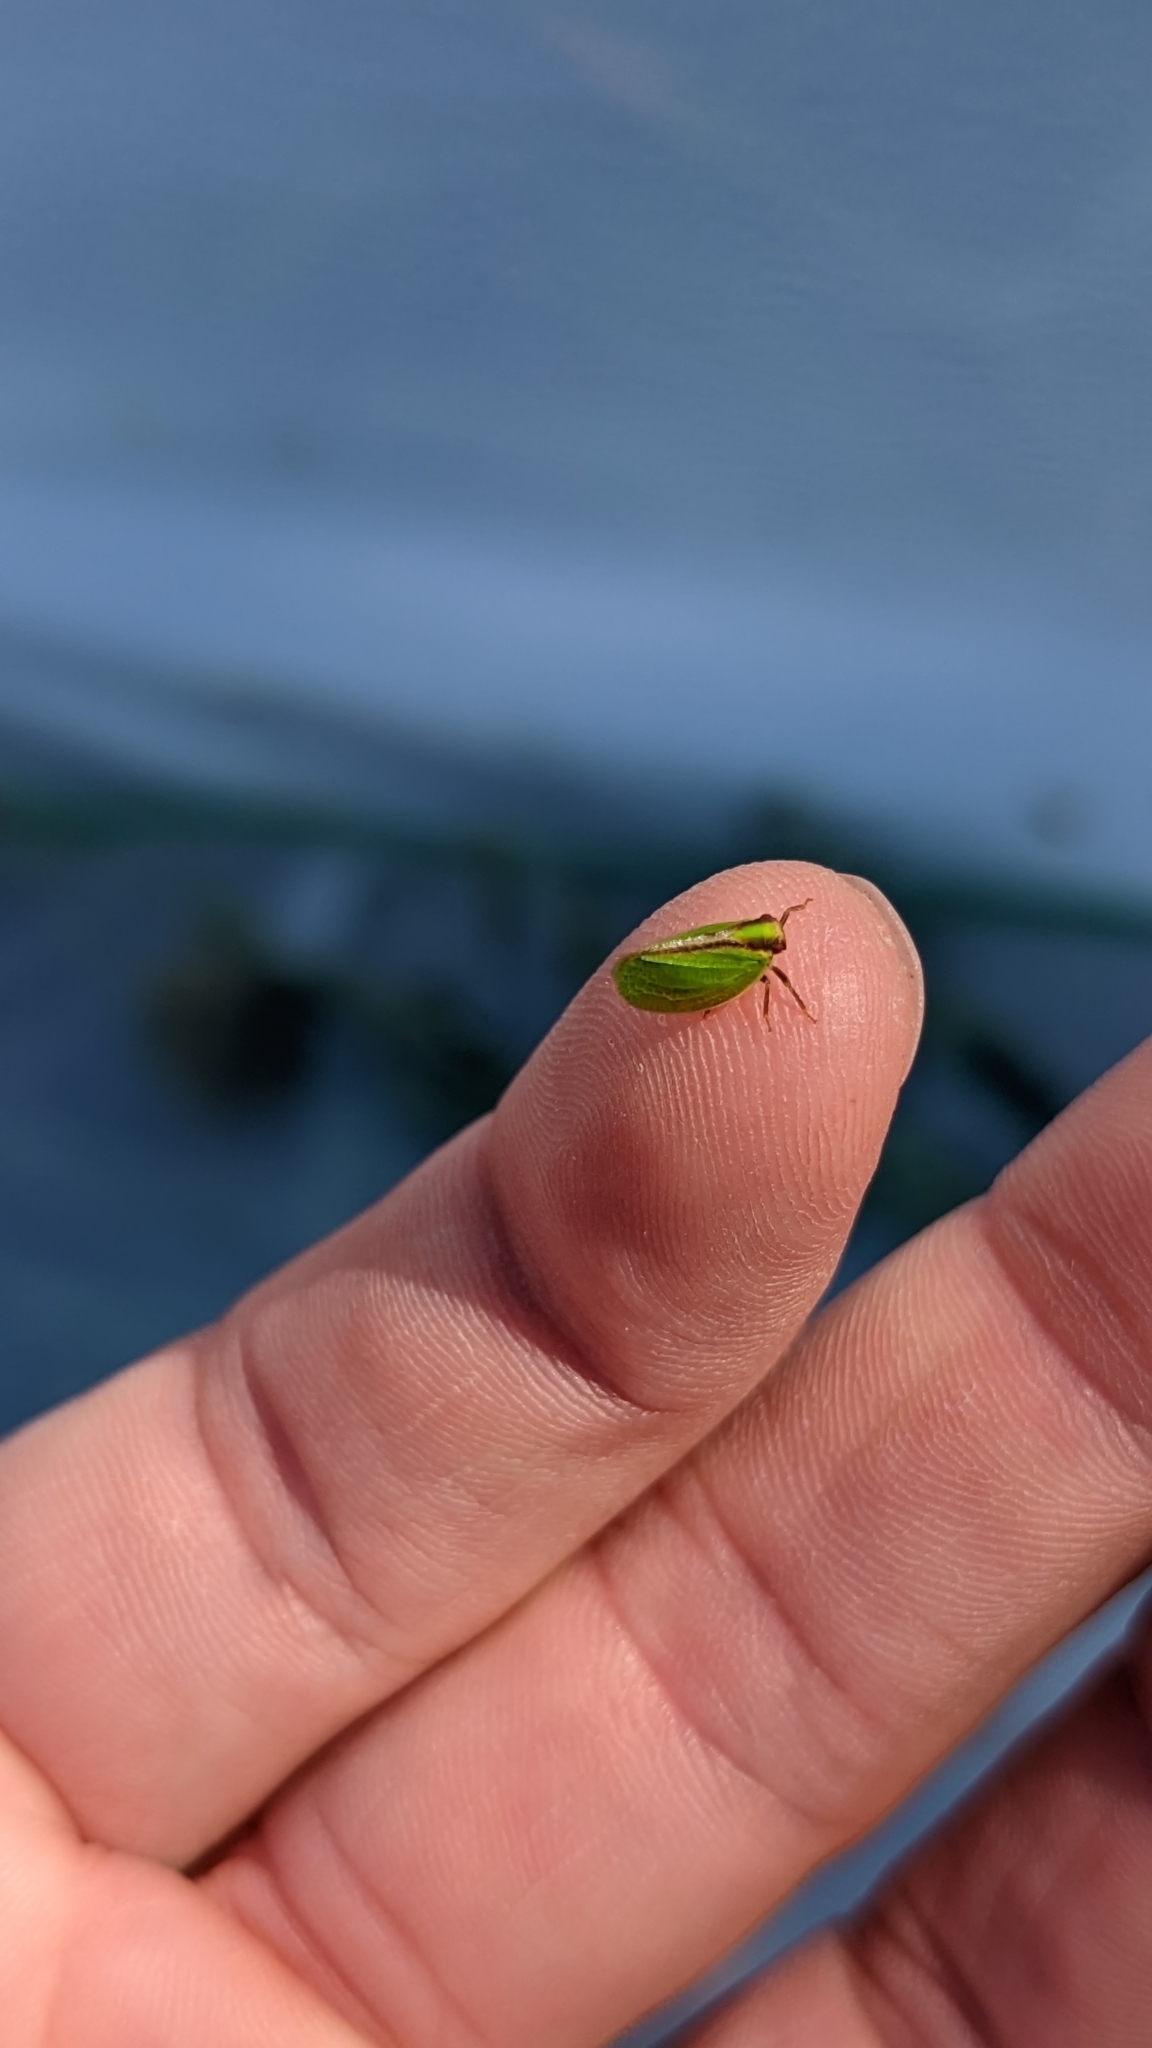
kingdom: Animalia
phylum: Arthropoda
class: Insecta
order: Hemiptera
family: Acanaloniidae
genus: Acanalonia
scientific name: Acanalonia bivittata
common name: Two-striped planthopper
